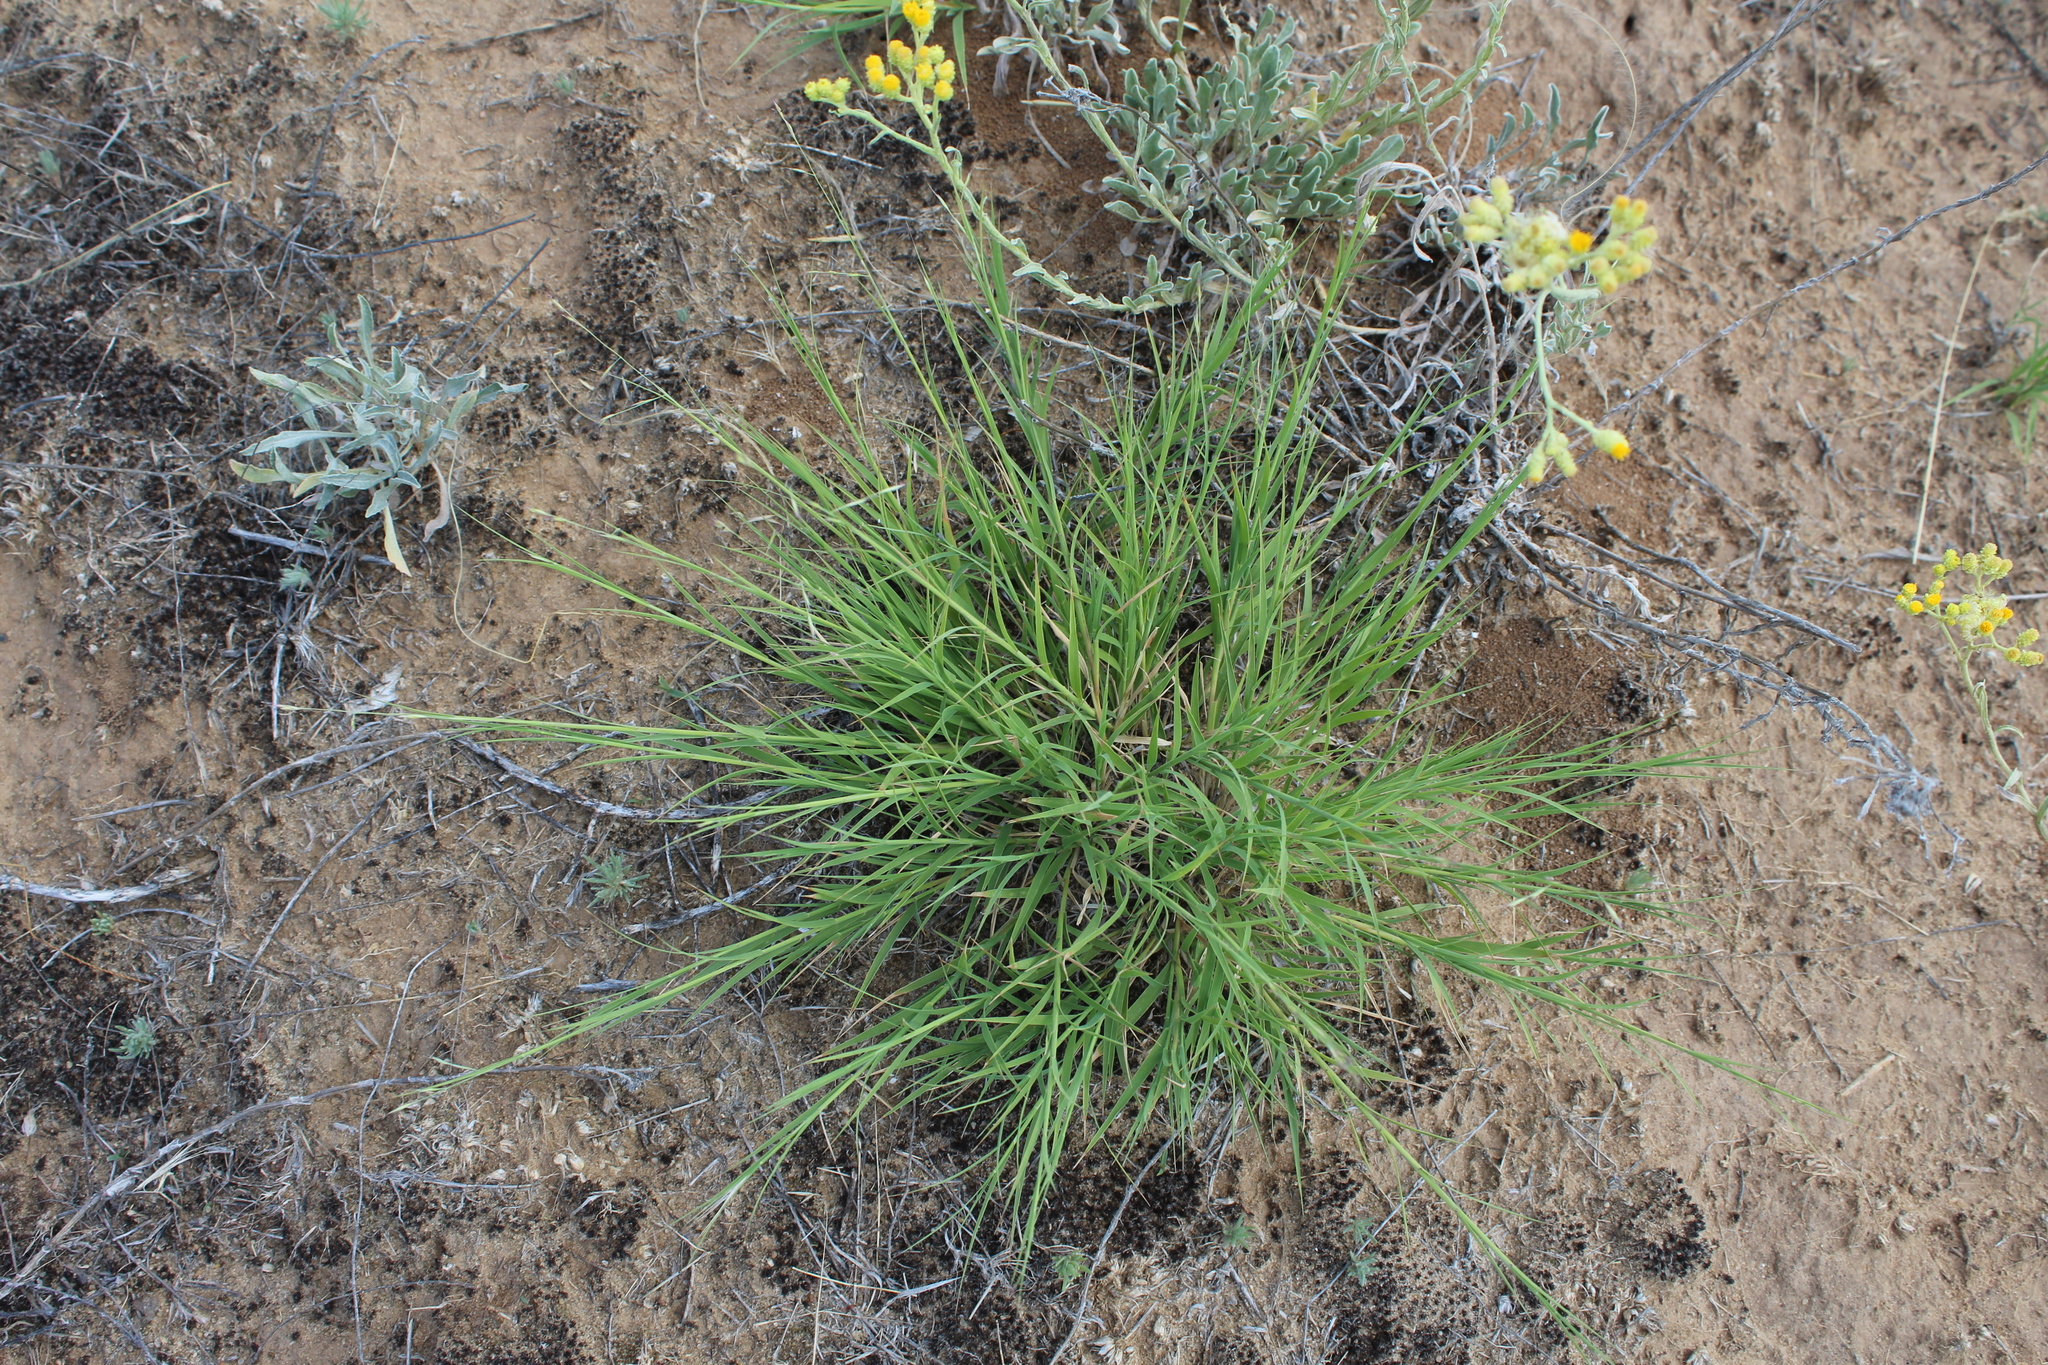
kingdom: Plantae
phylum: Tracheophyta
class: Liliopsida
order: Poales
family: Poaceae
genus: Cleistogenes
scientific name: Cleistogenes squarrosa
